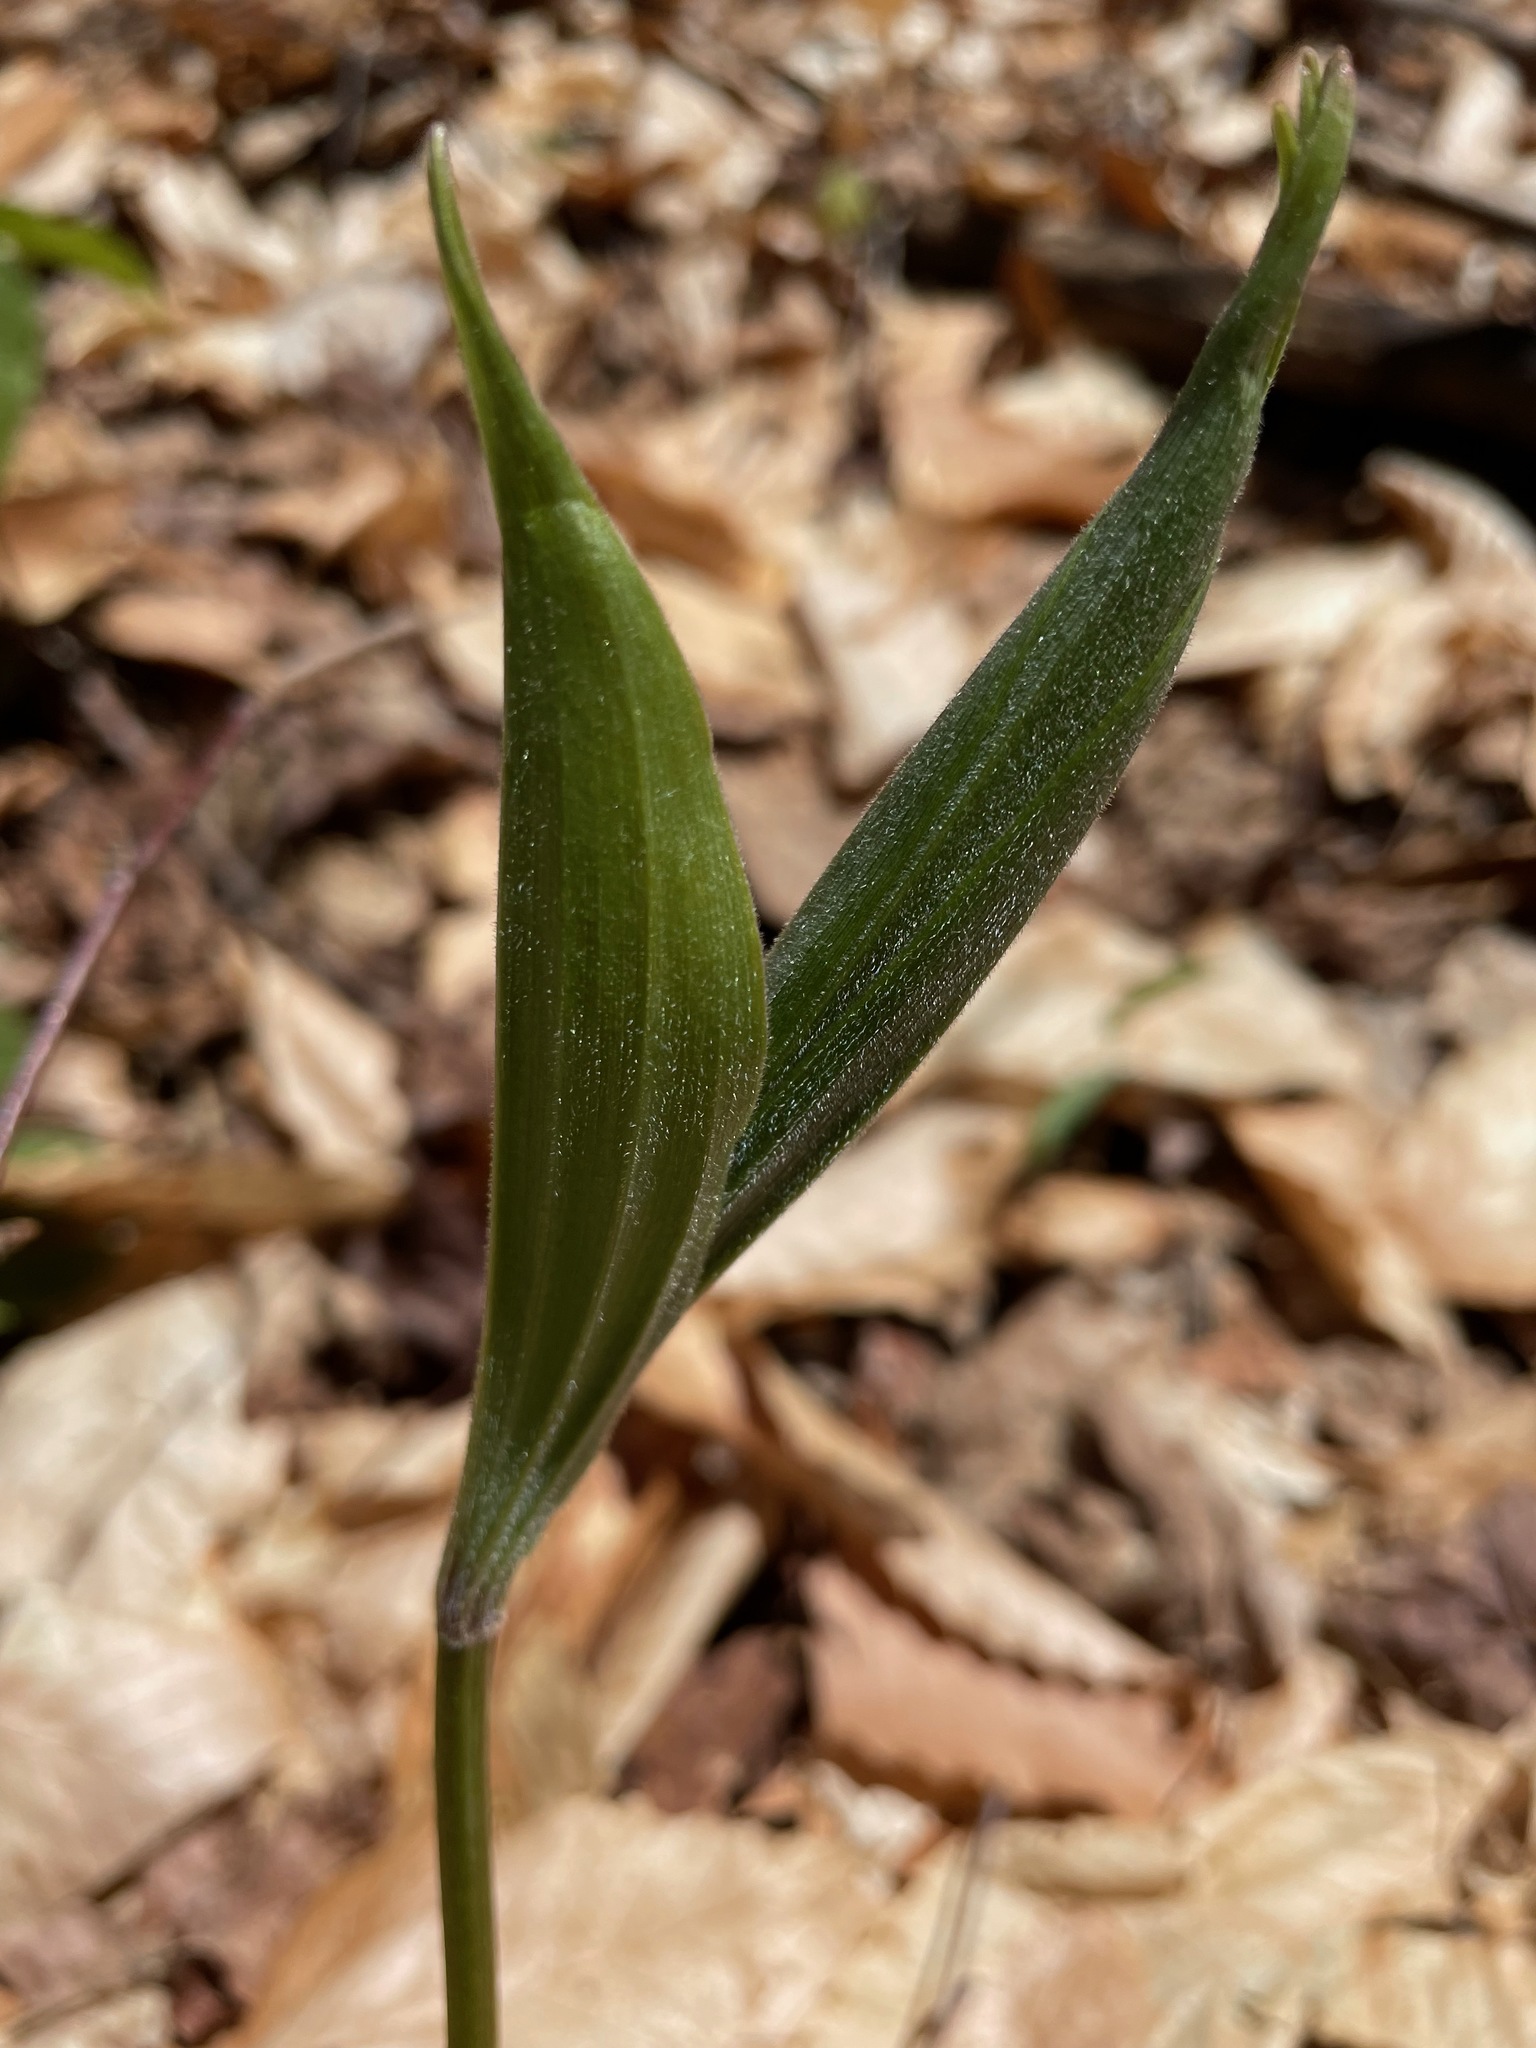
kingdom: Plantae
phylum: Tracheophyta
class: Liliopsida
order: Asparagales
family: Asparagaceae
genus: Maianthemum
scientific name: Maianthemum racemosum
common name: False spikenard
